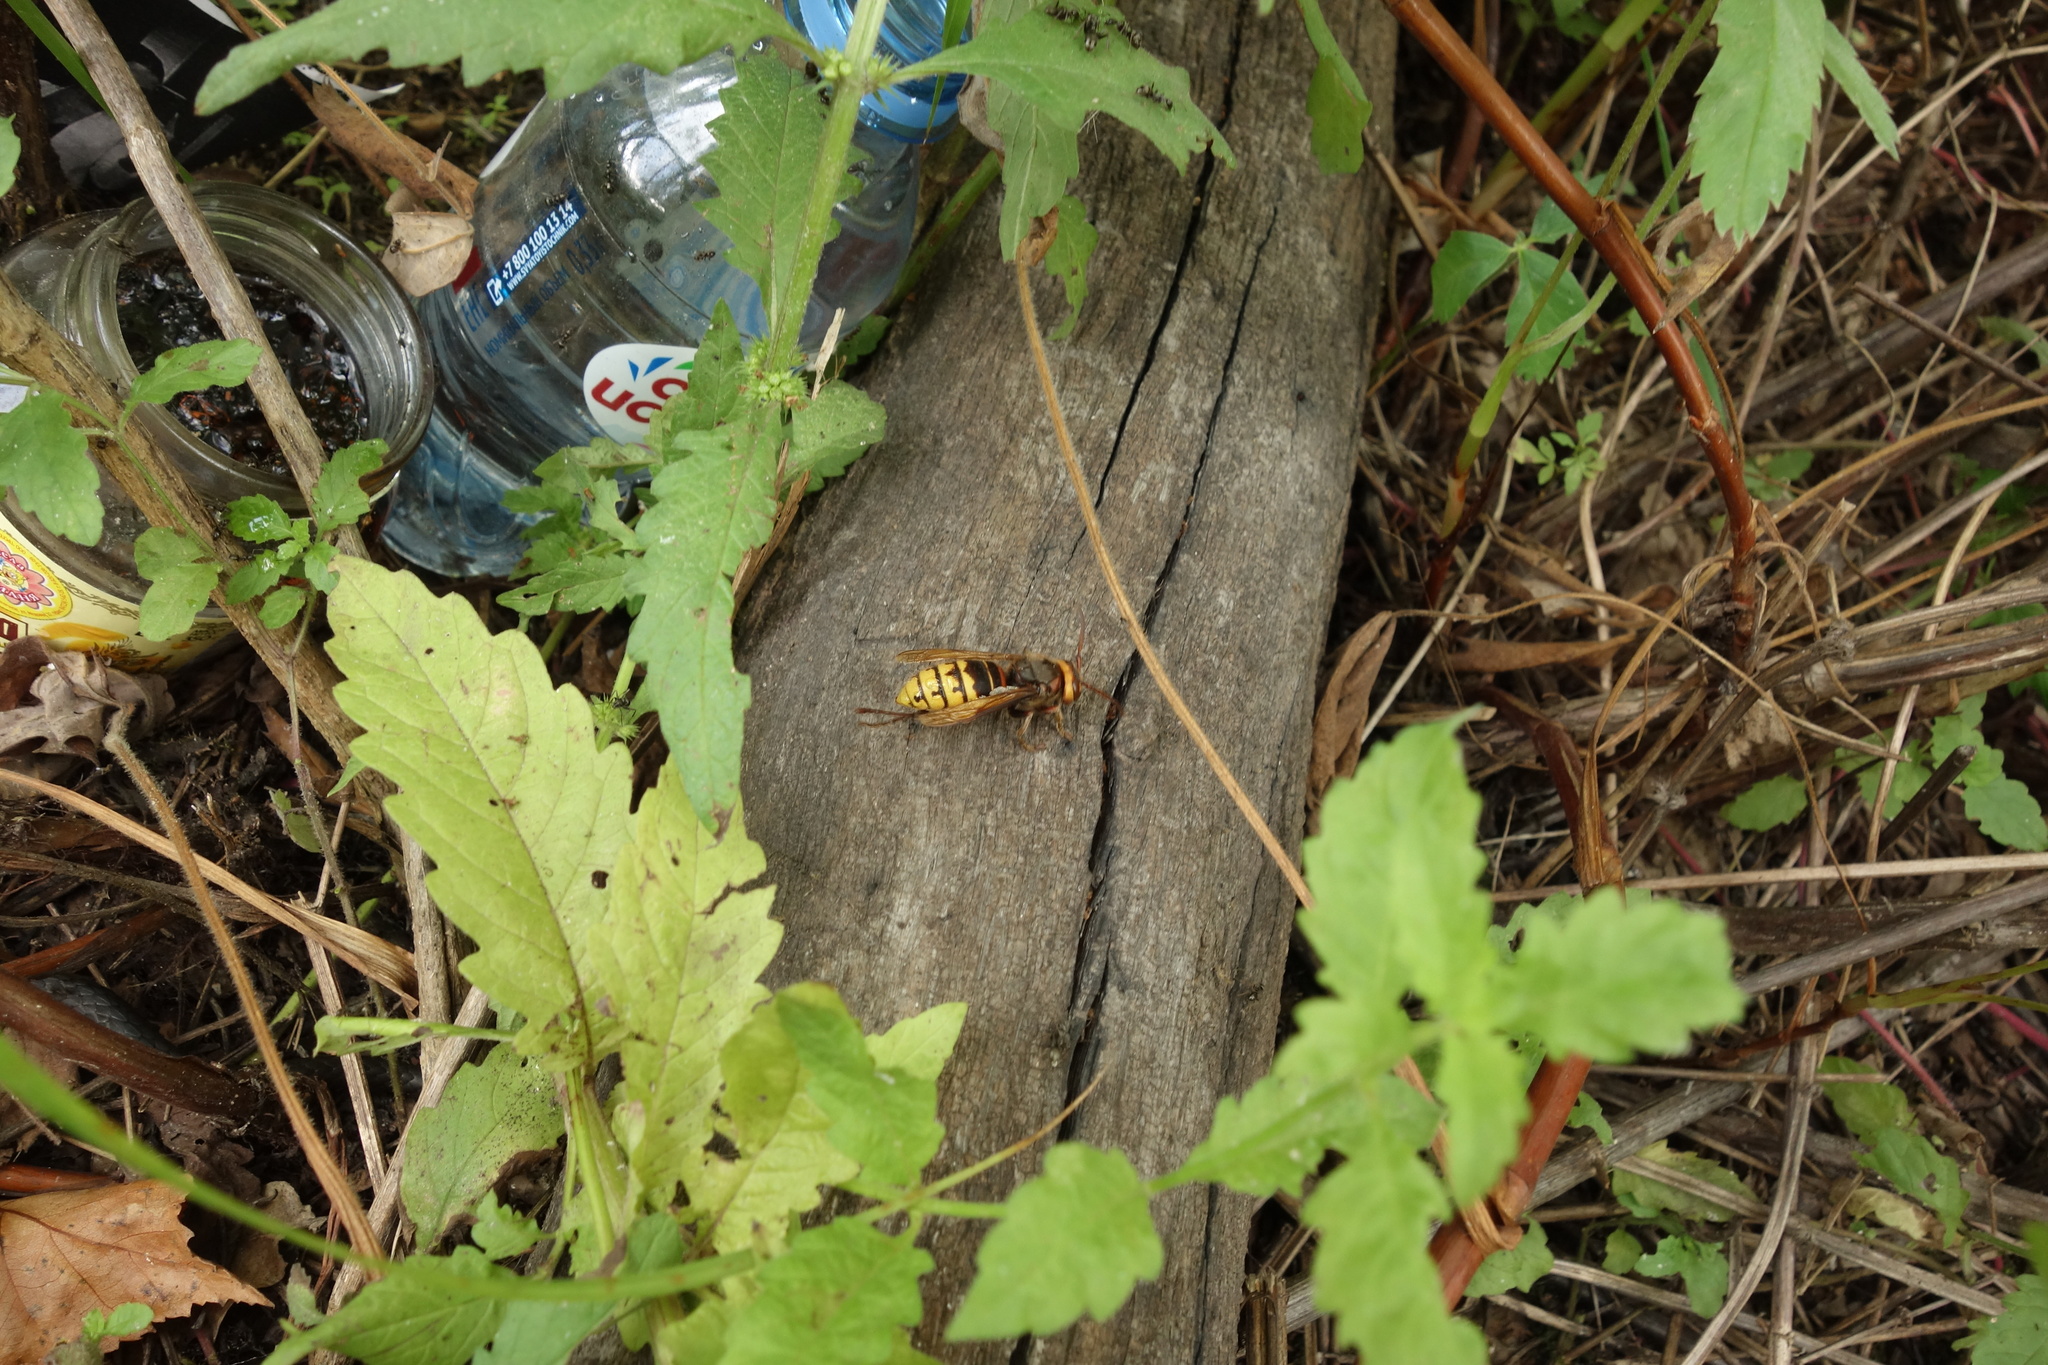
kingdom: Animalia
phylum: Arthropoda
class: Insecta
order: Hymenoptera
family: Vespidae
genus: Vespa
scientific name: Vespa crabro
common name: Hornet
